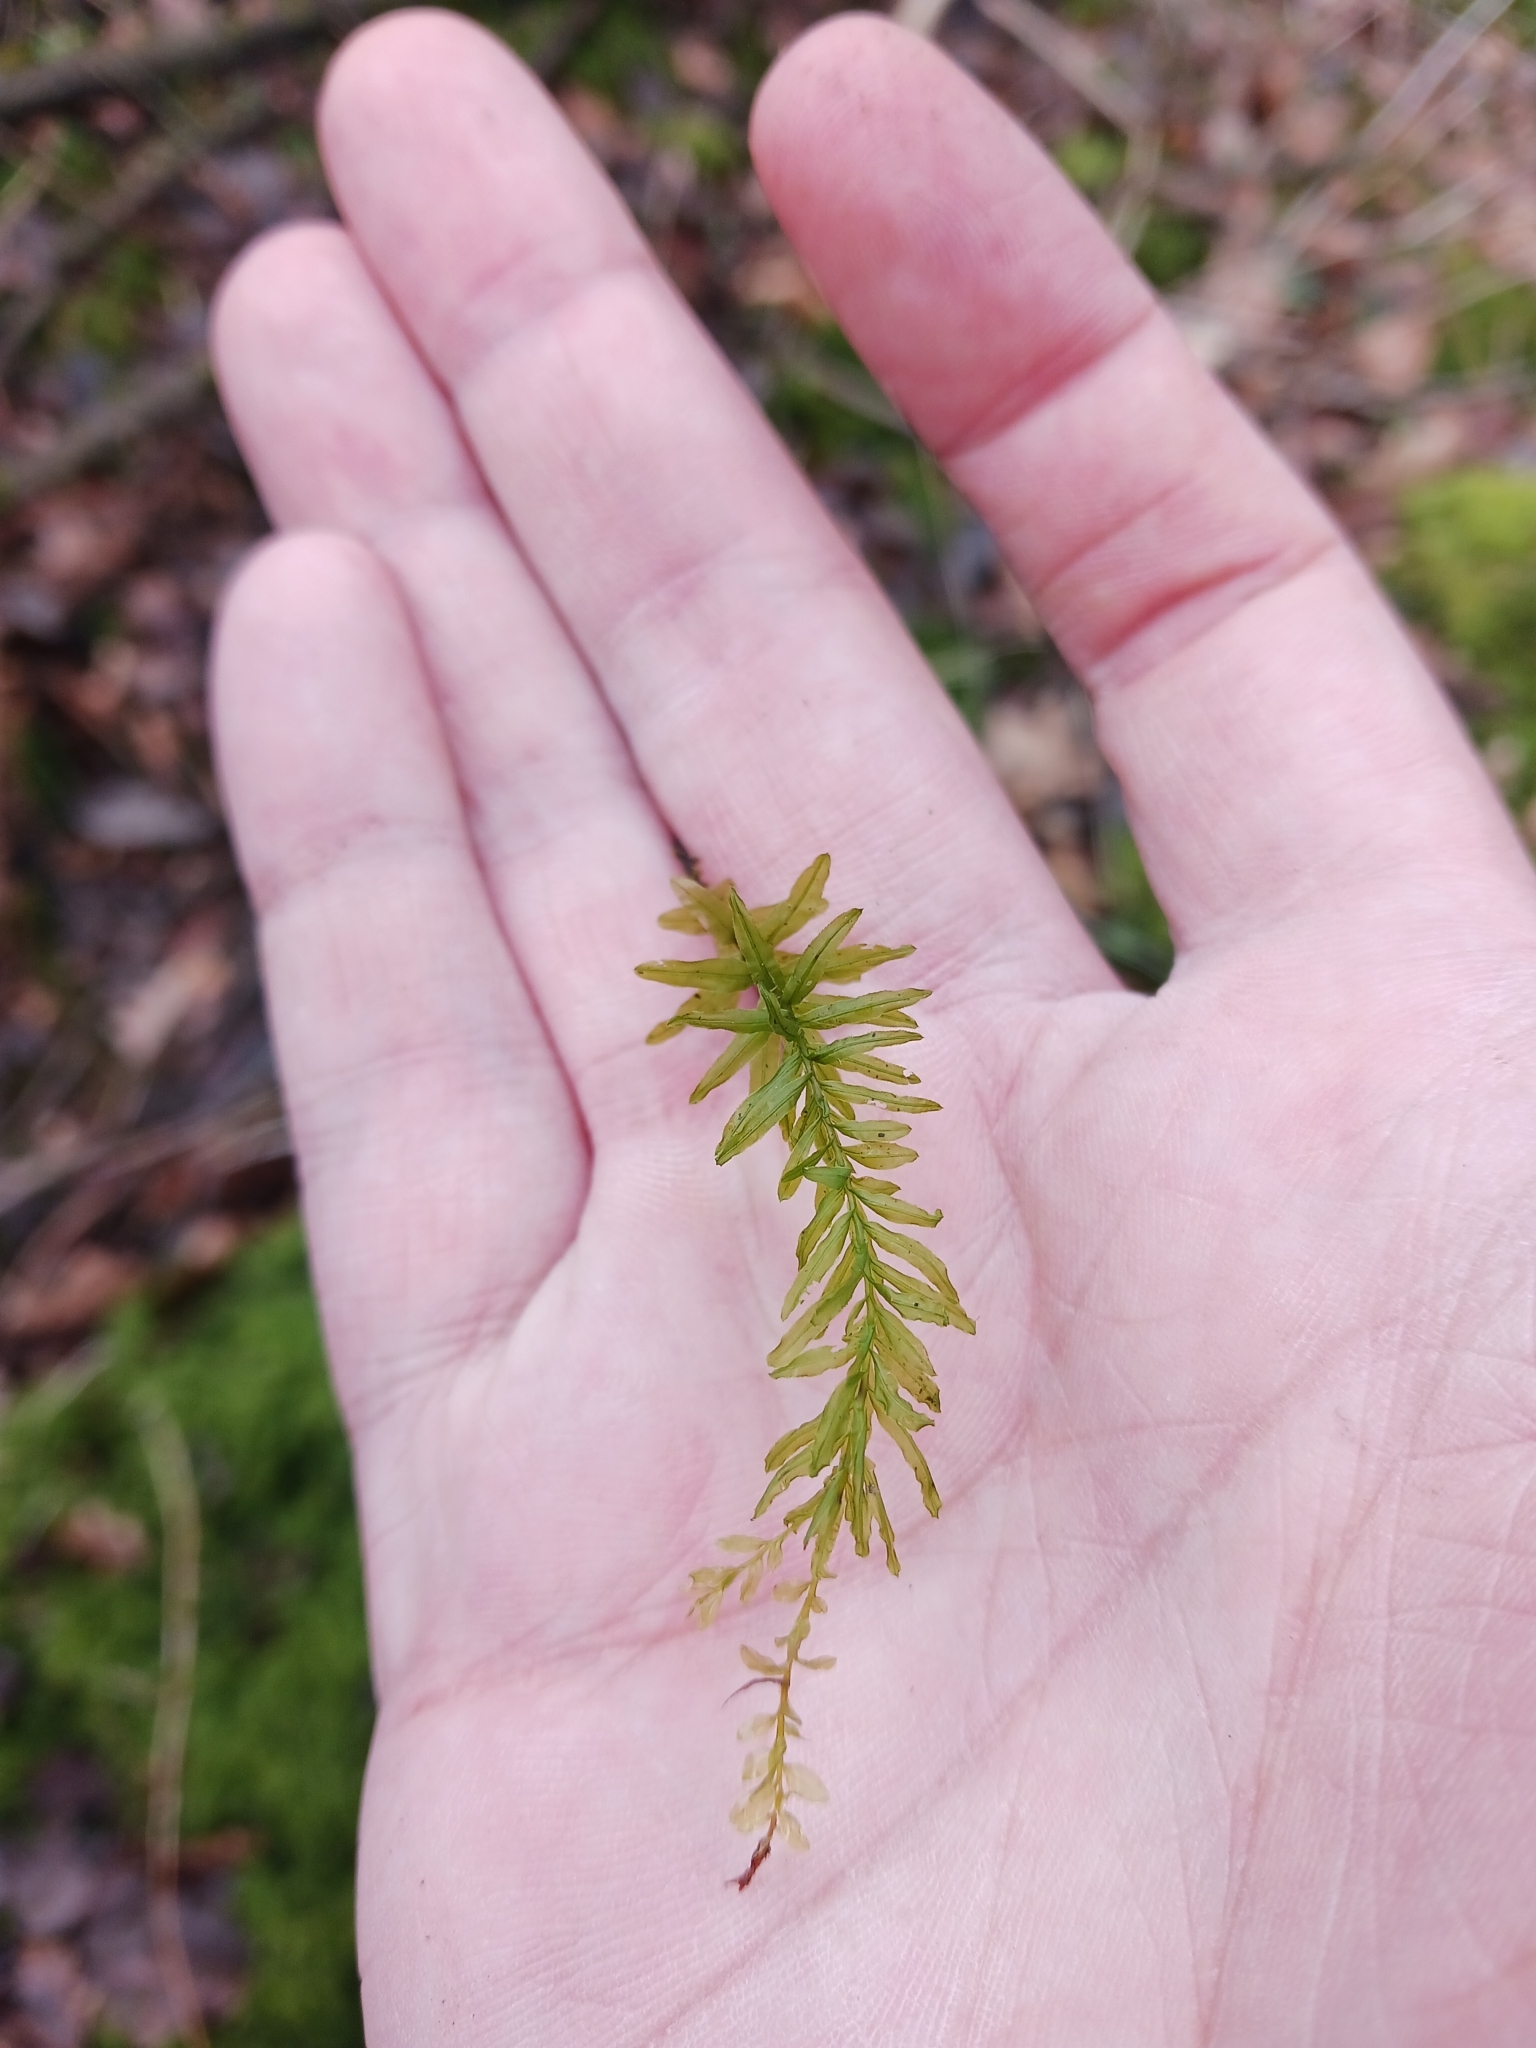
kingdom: Plantae
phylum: Bryophyta
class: Bryopsida
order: Bryales
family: Mniaceae
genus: Plagiomnium
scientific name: Plagiomnium undulatum
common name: Hart's-tongue thyme-moss
